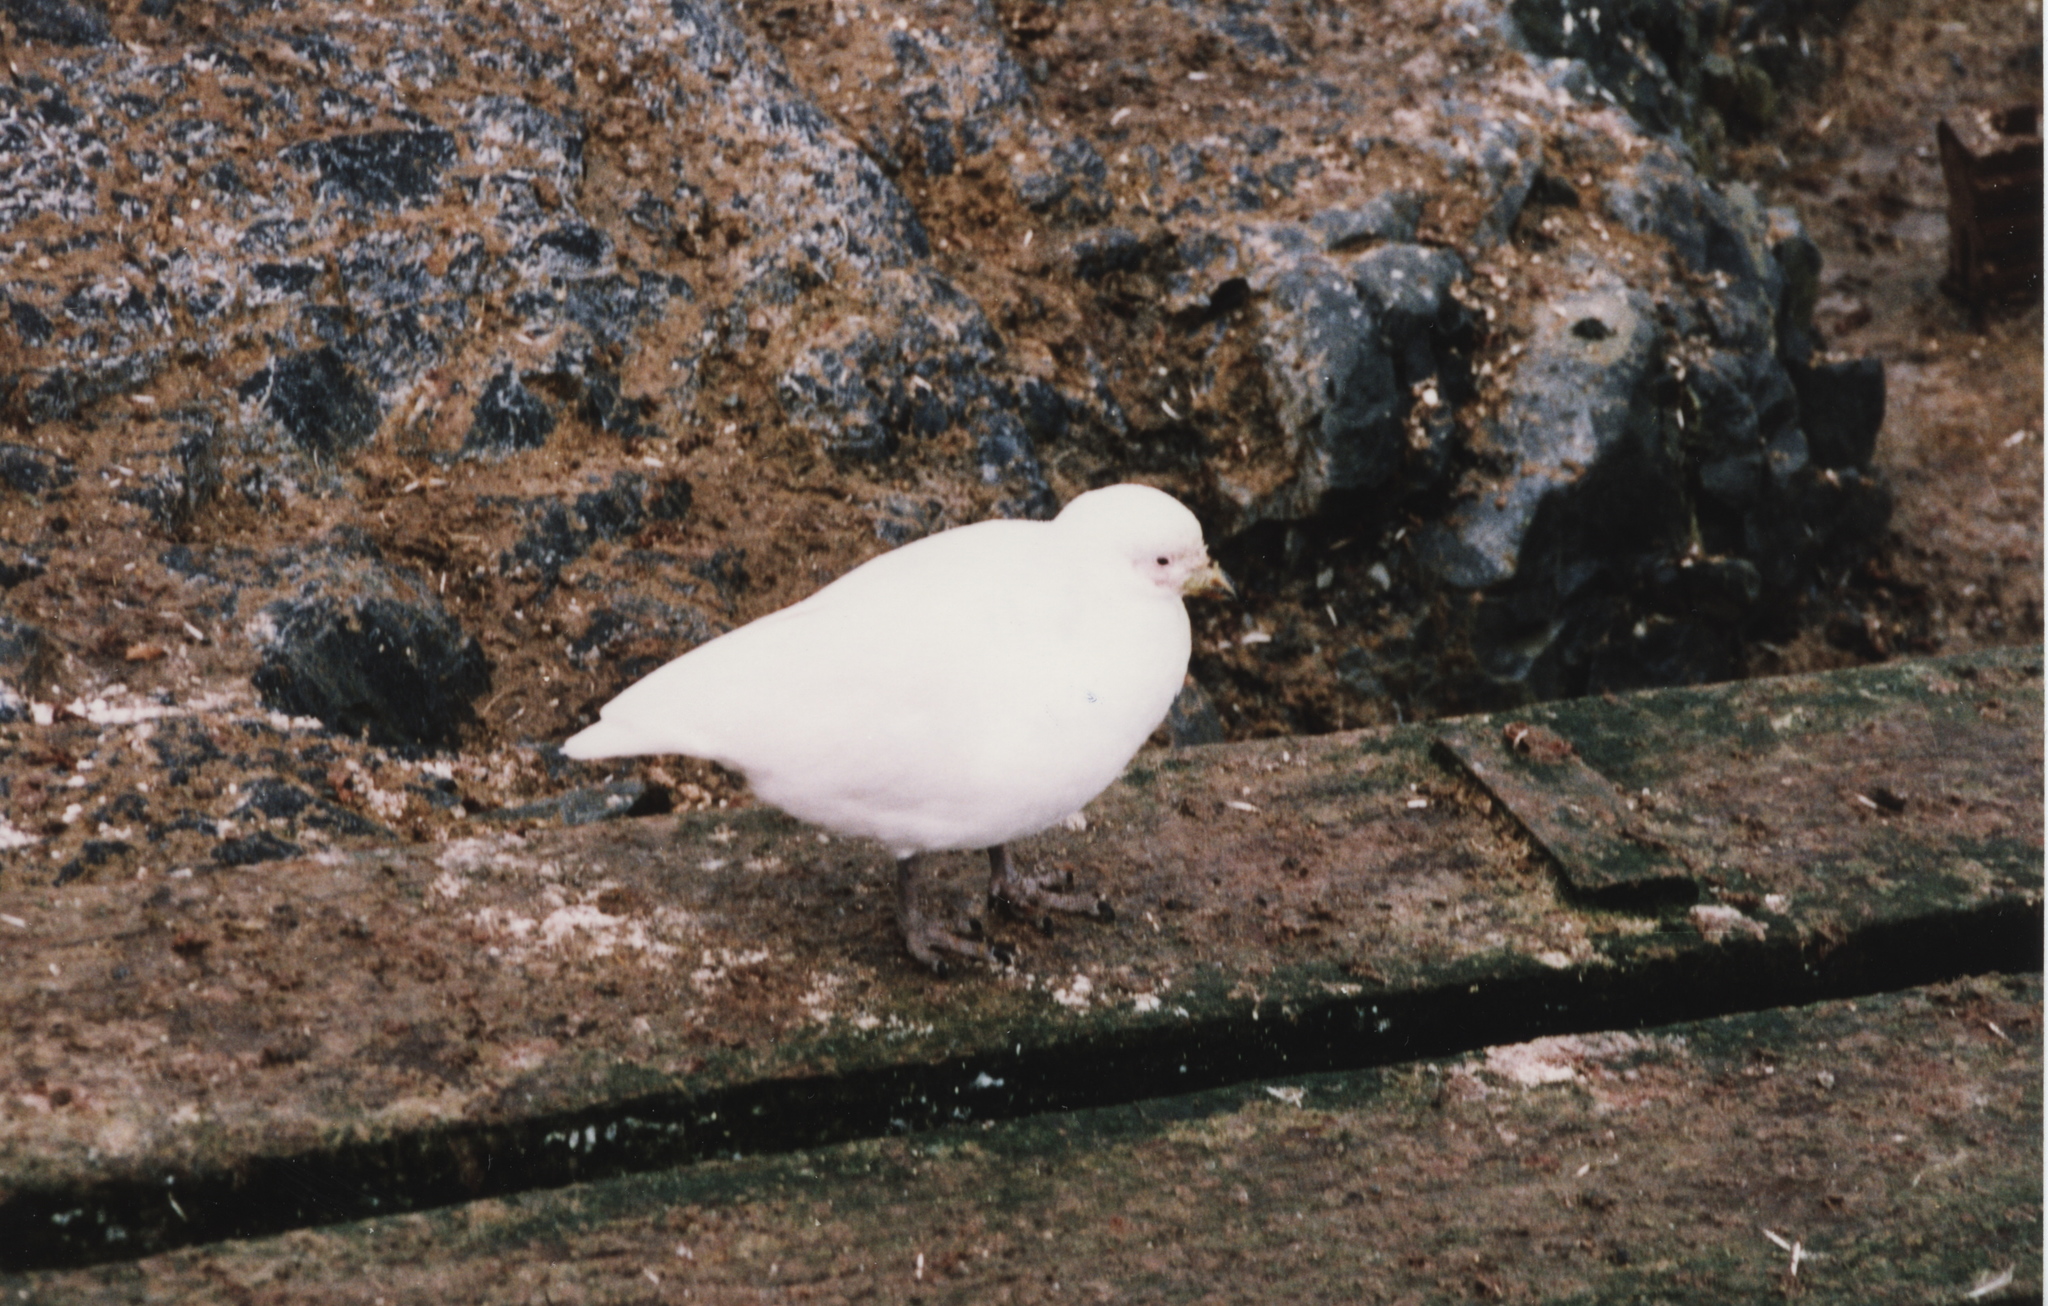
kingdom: Animalia
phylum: Chordata
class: Aves
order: Charadriiformes
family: Chionidae
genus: Chionis
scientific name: Chionis albus
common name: Snowy sheathbill
